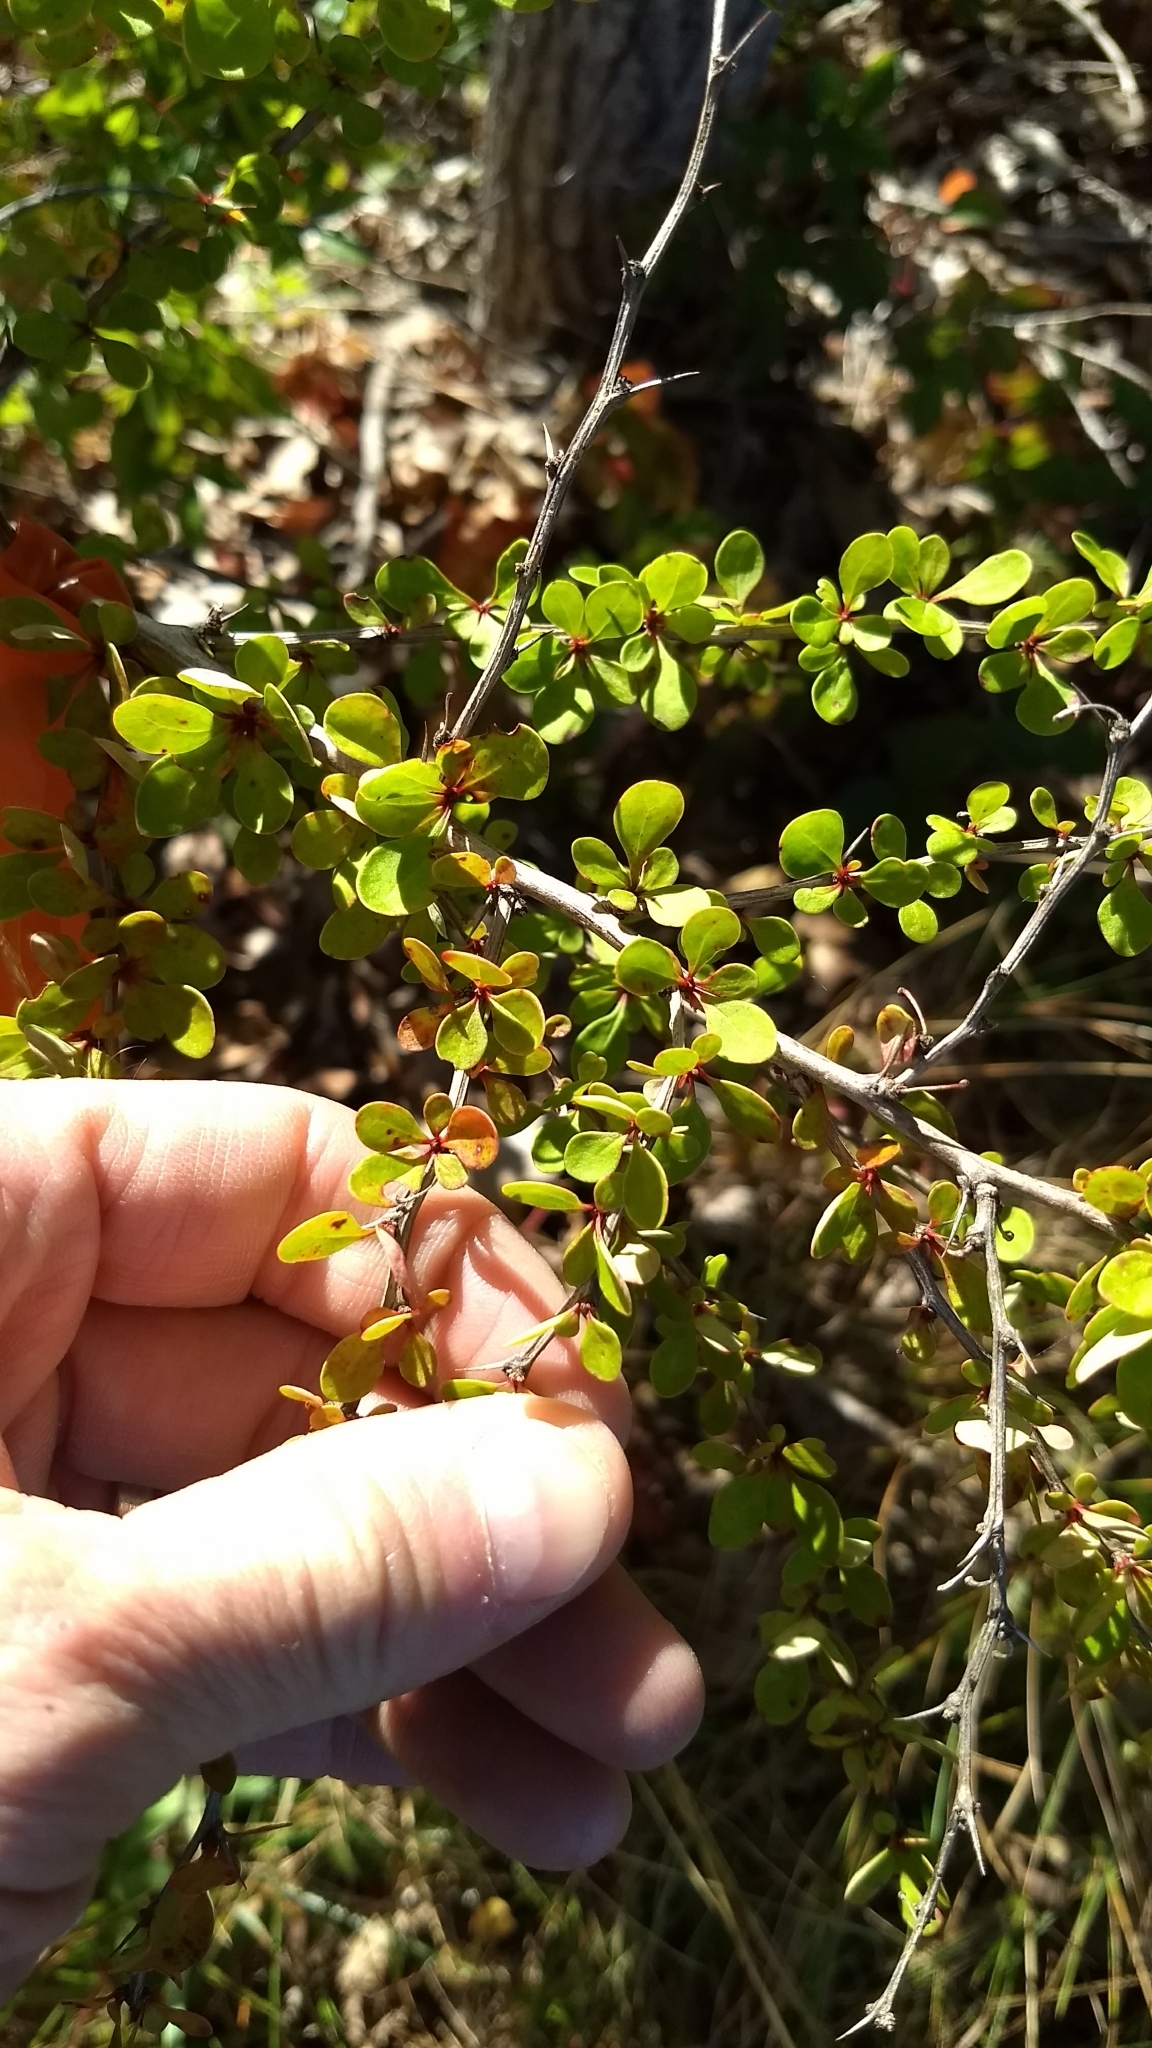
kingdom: Plantae
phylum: Tracheophyta
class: Magnoliopsida
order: Ranunculales
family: Berberidaceae
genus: Berberis
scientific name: Berberis thunbergii
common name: Japanese barberry
